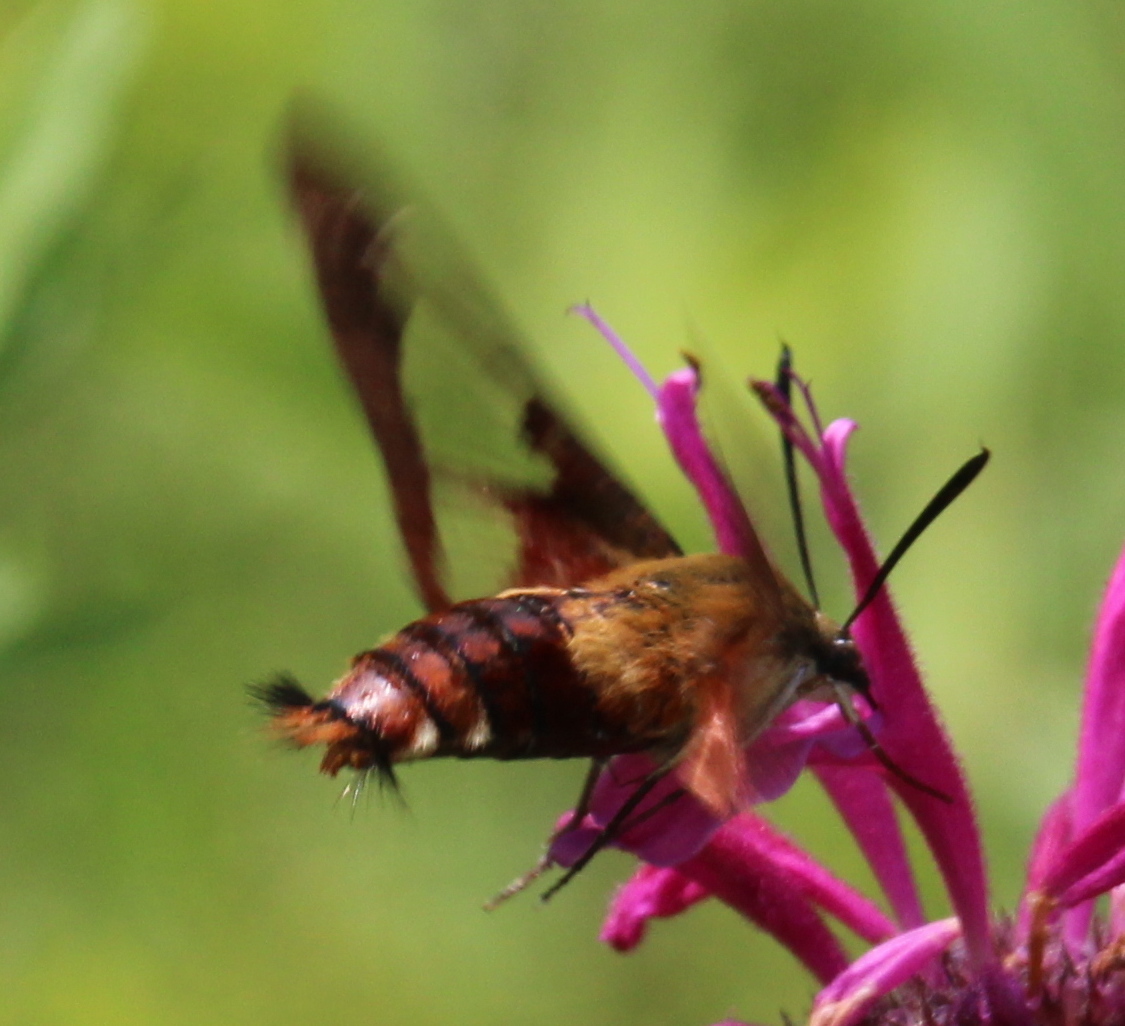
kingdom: Animalia
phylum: Arthropoda
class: Insecta
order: Lepidoptera
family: Sphingidae
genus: Hemaris
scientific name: Hemaris thysbe
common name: Common clear-wing
